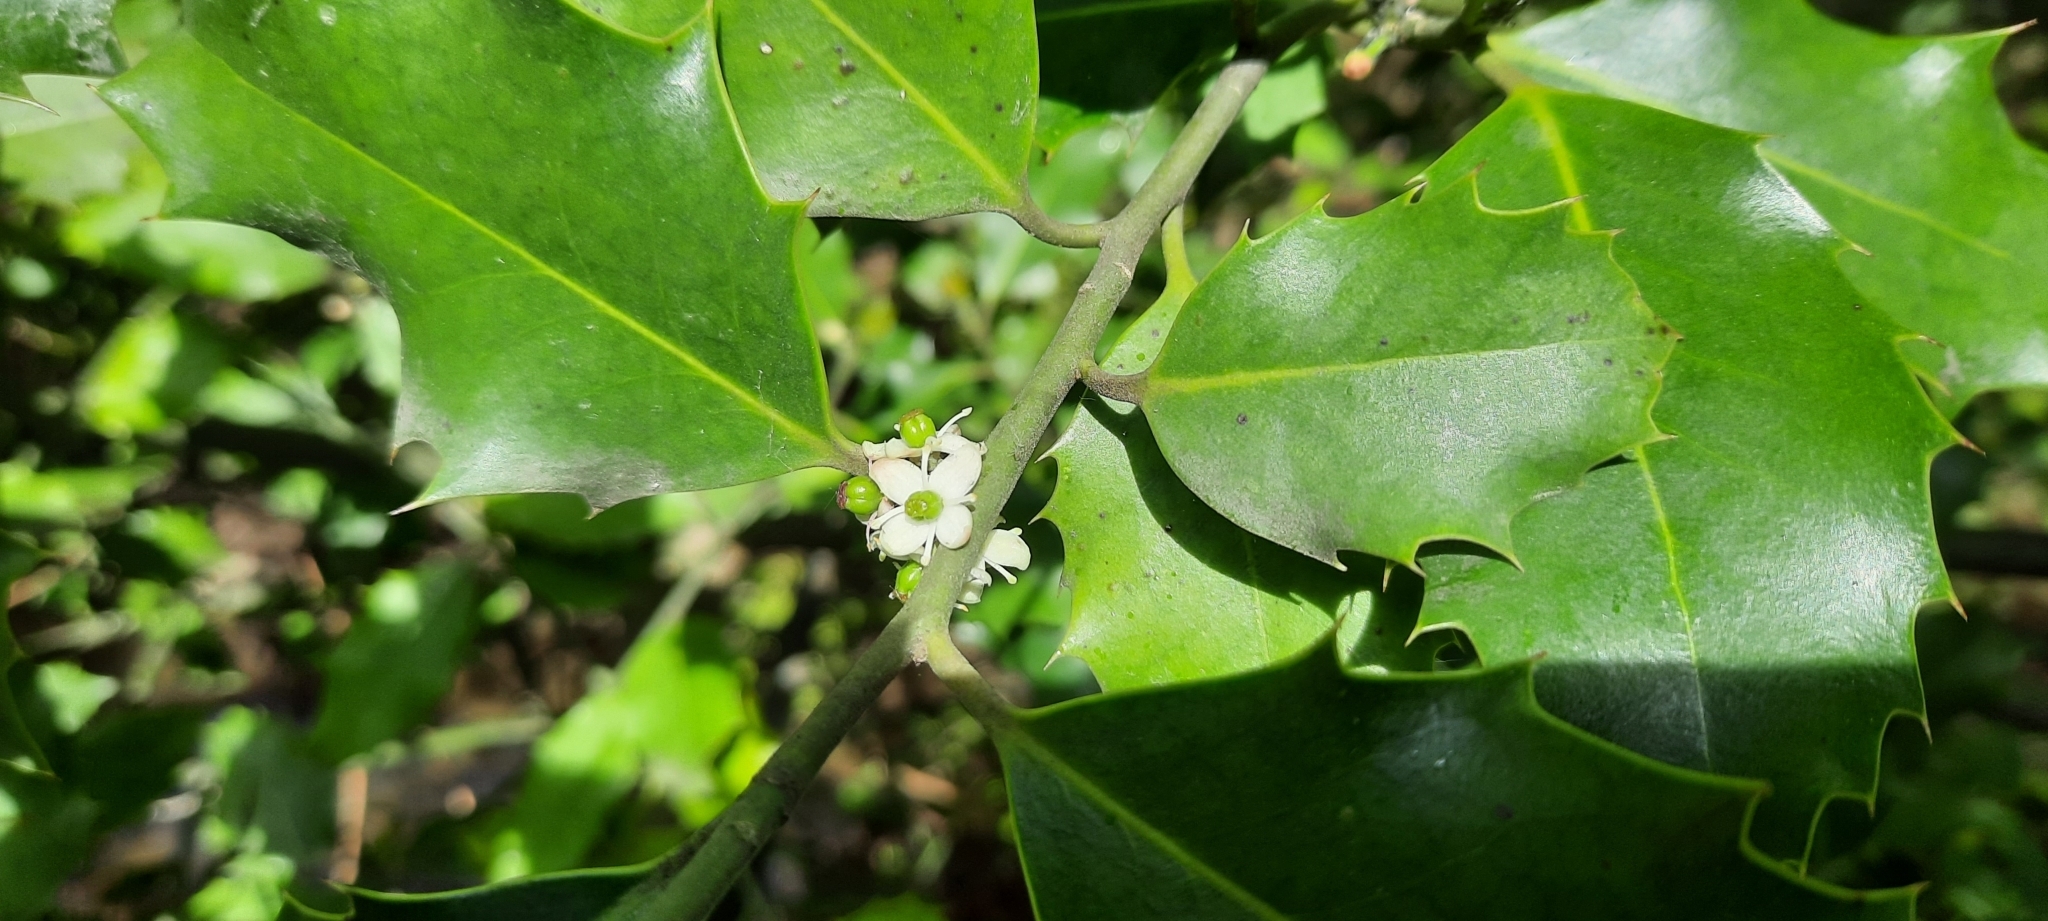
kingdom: Plantae
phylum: Tracheophyta
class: Magnoliopsida
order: Aquifoliales
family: Aquifoliaceae
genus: Ilex
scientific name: Ilex aquifolium
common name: English holly
